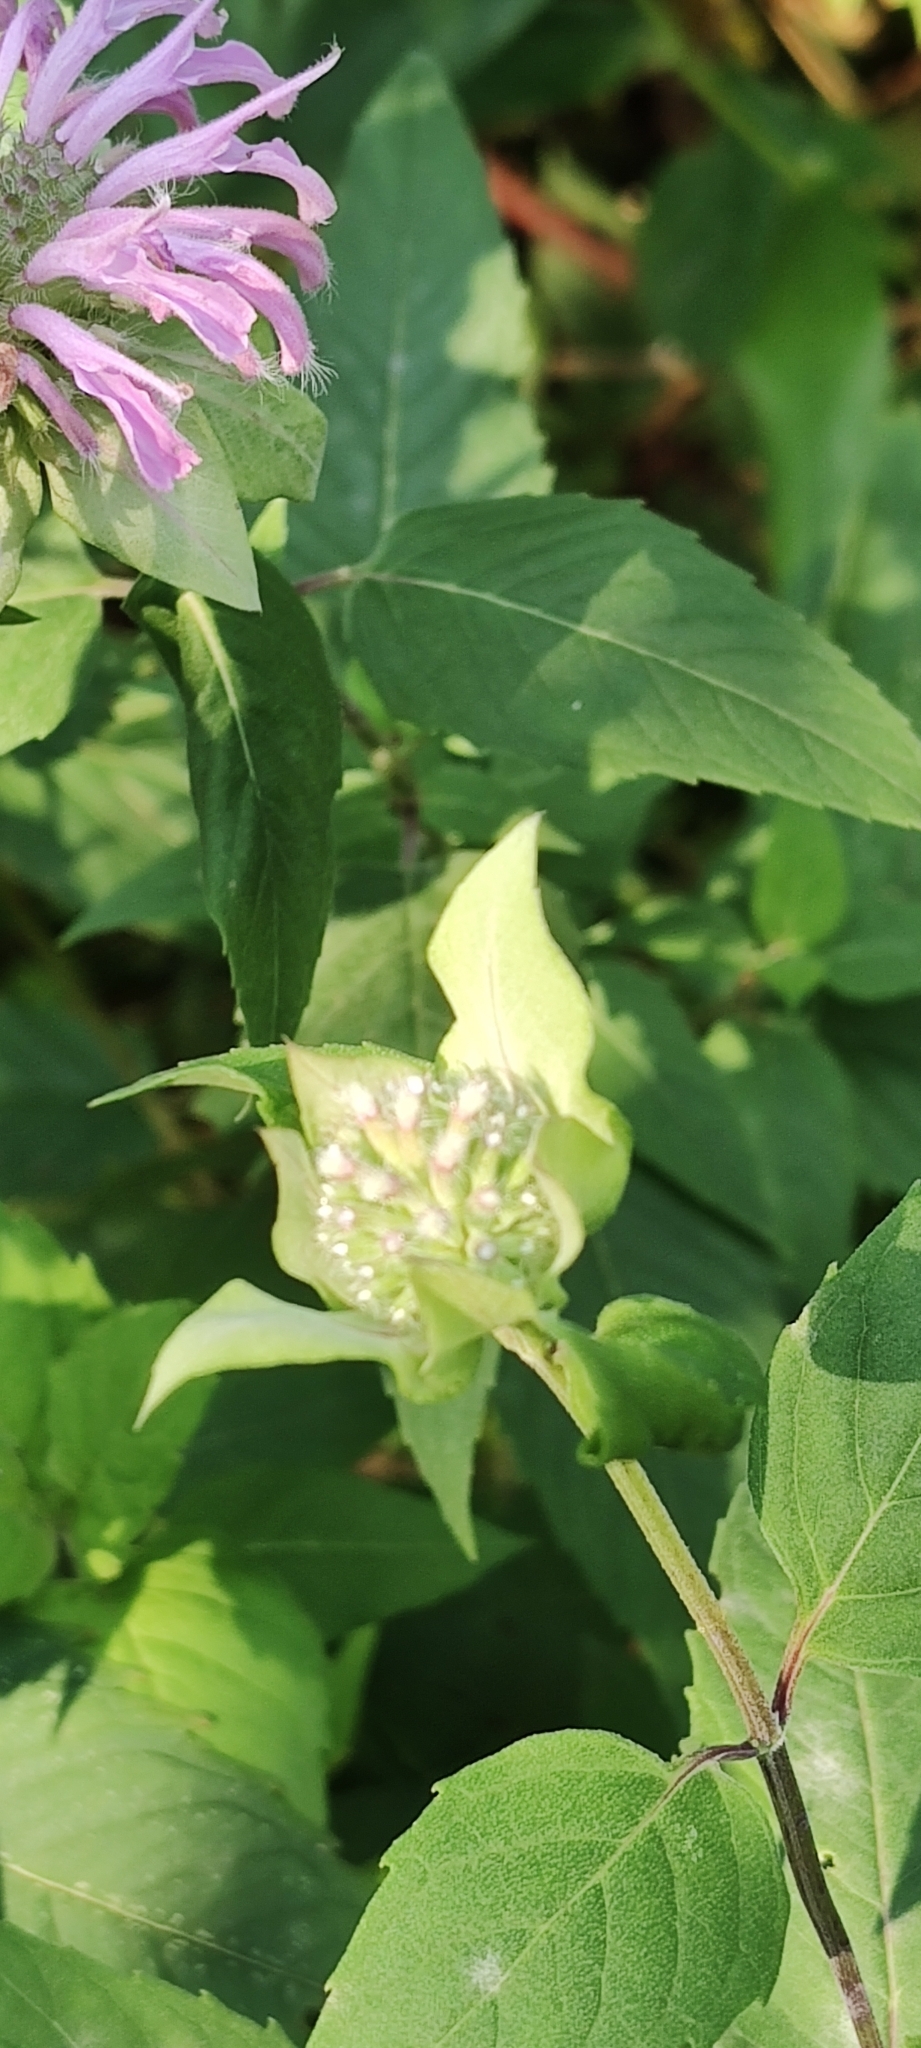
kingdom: Plantae
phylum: Tracheophyta
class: Magnoliopsida
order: Lamiales
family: Lamiaceae
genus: Monarda
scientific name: Monarda fistulosa
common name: Purple beebalm
